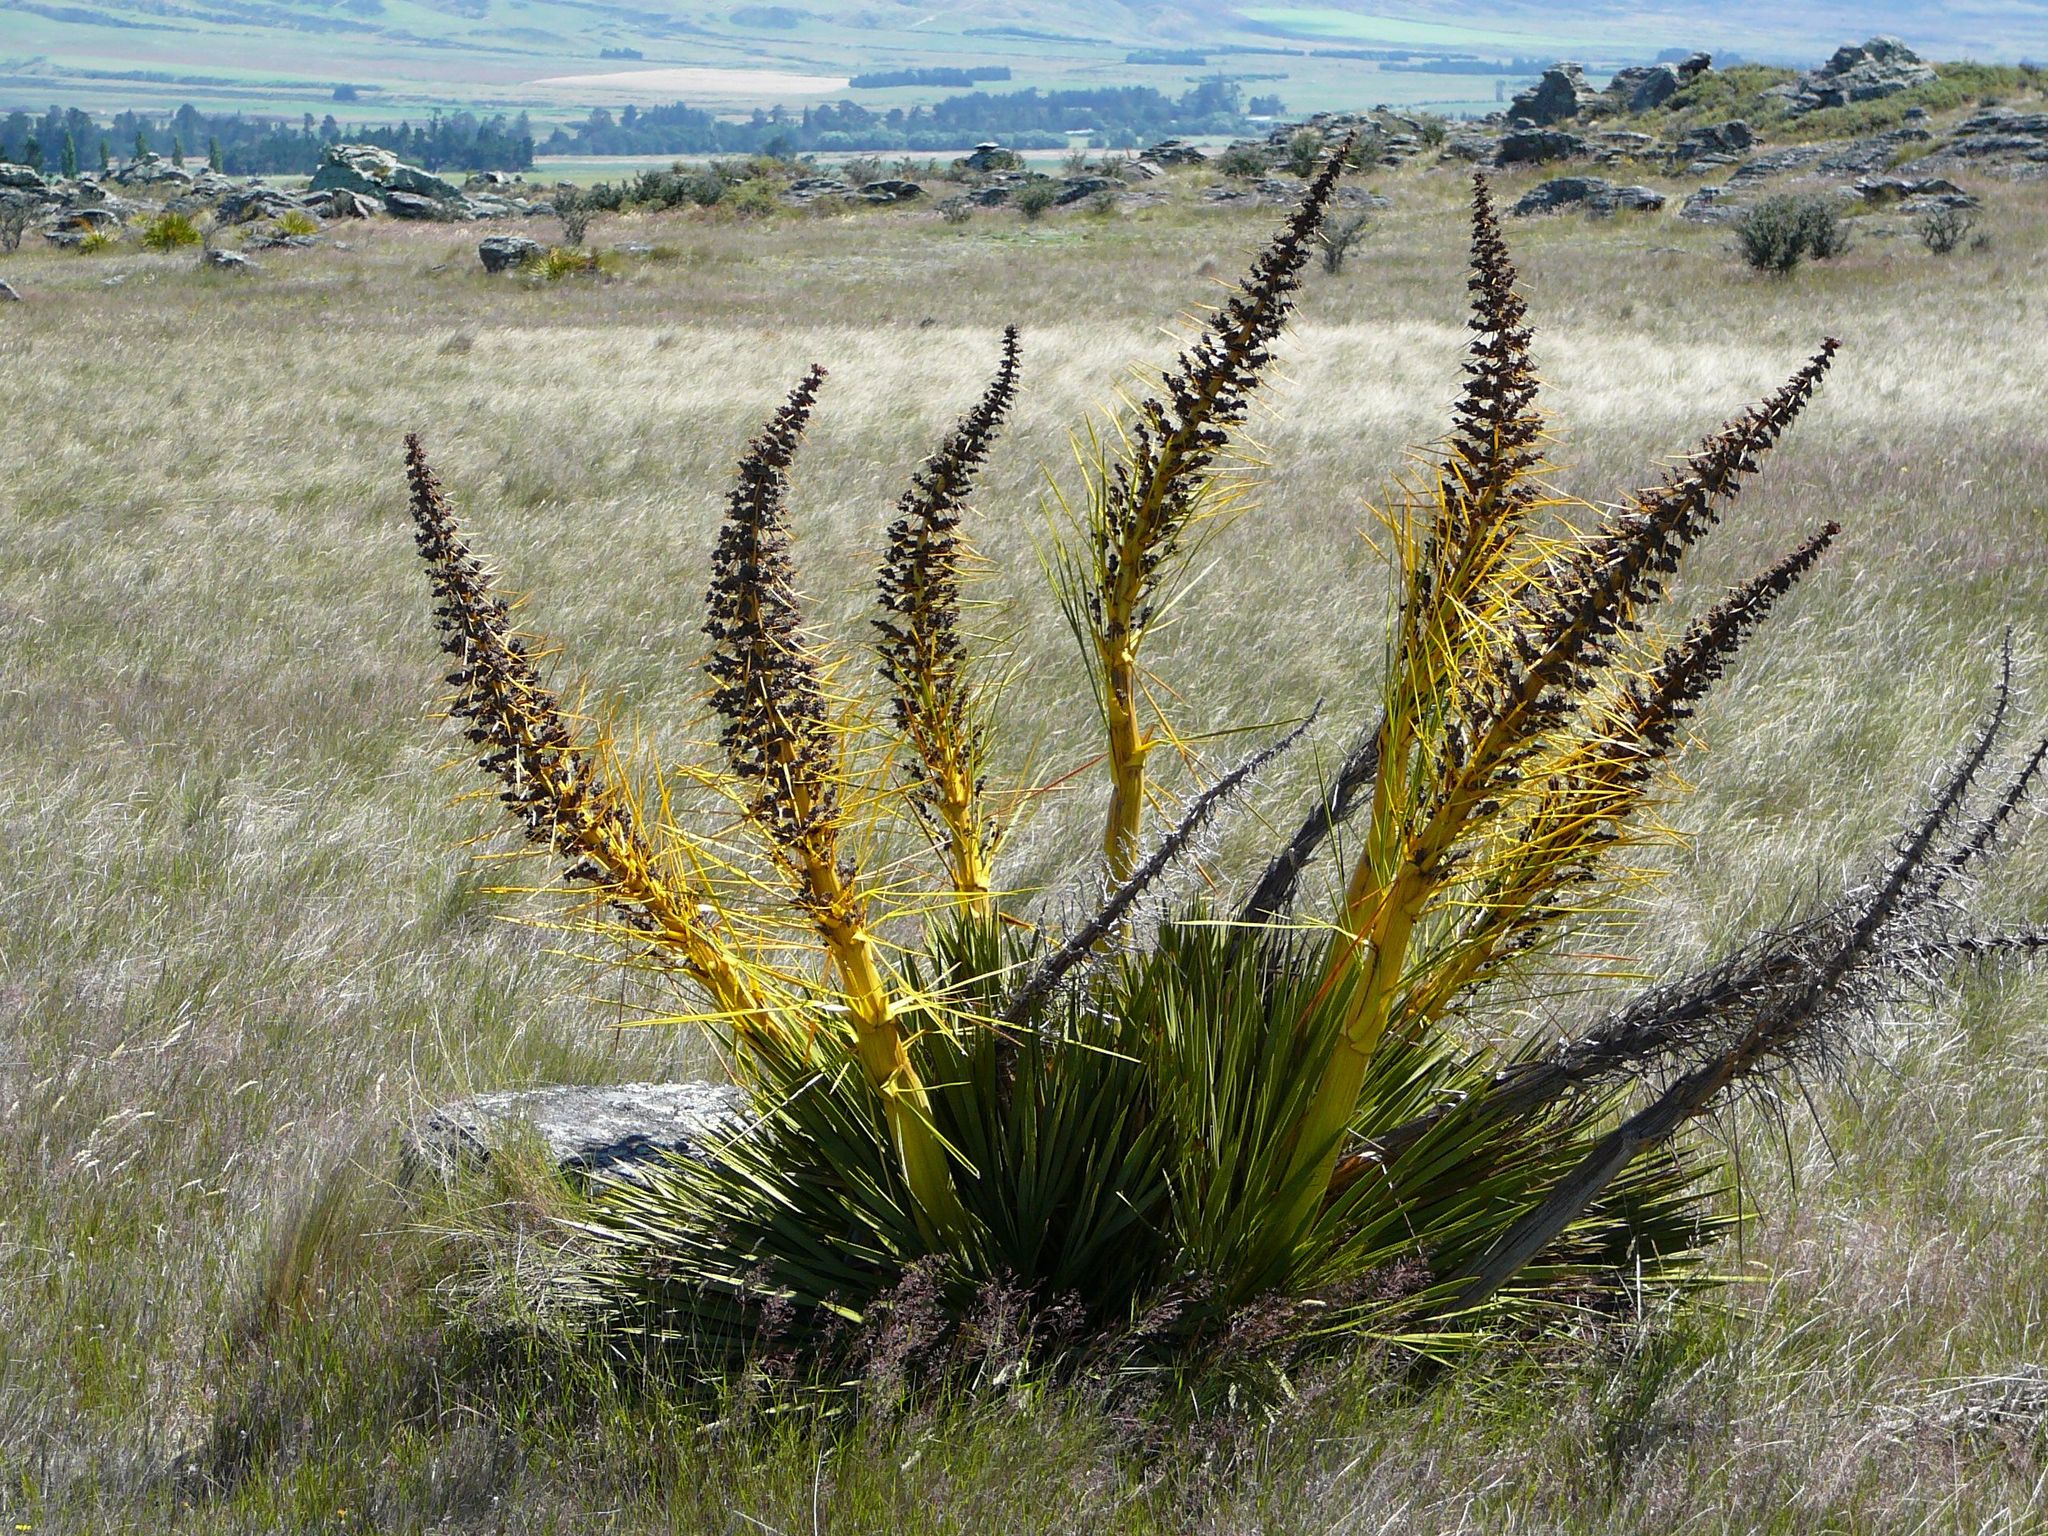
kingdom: Plantae
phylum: Tracheophyta
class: Magnoliopsida
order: Apiales
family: Apiaceae
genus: Aciphylla
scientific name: Aciphylla aurea
